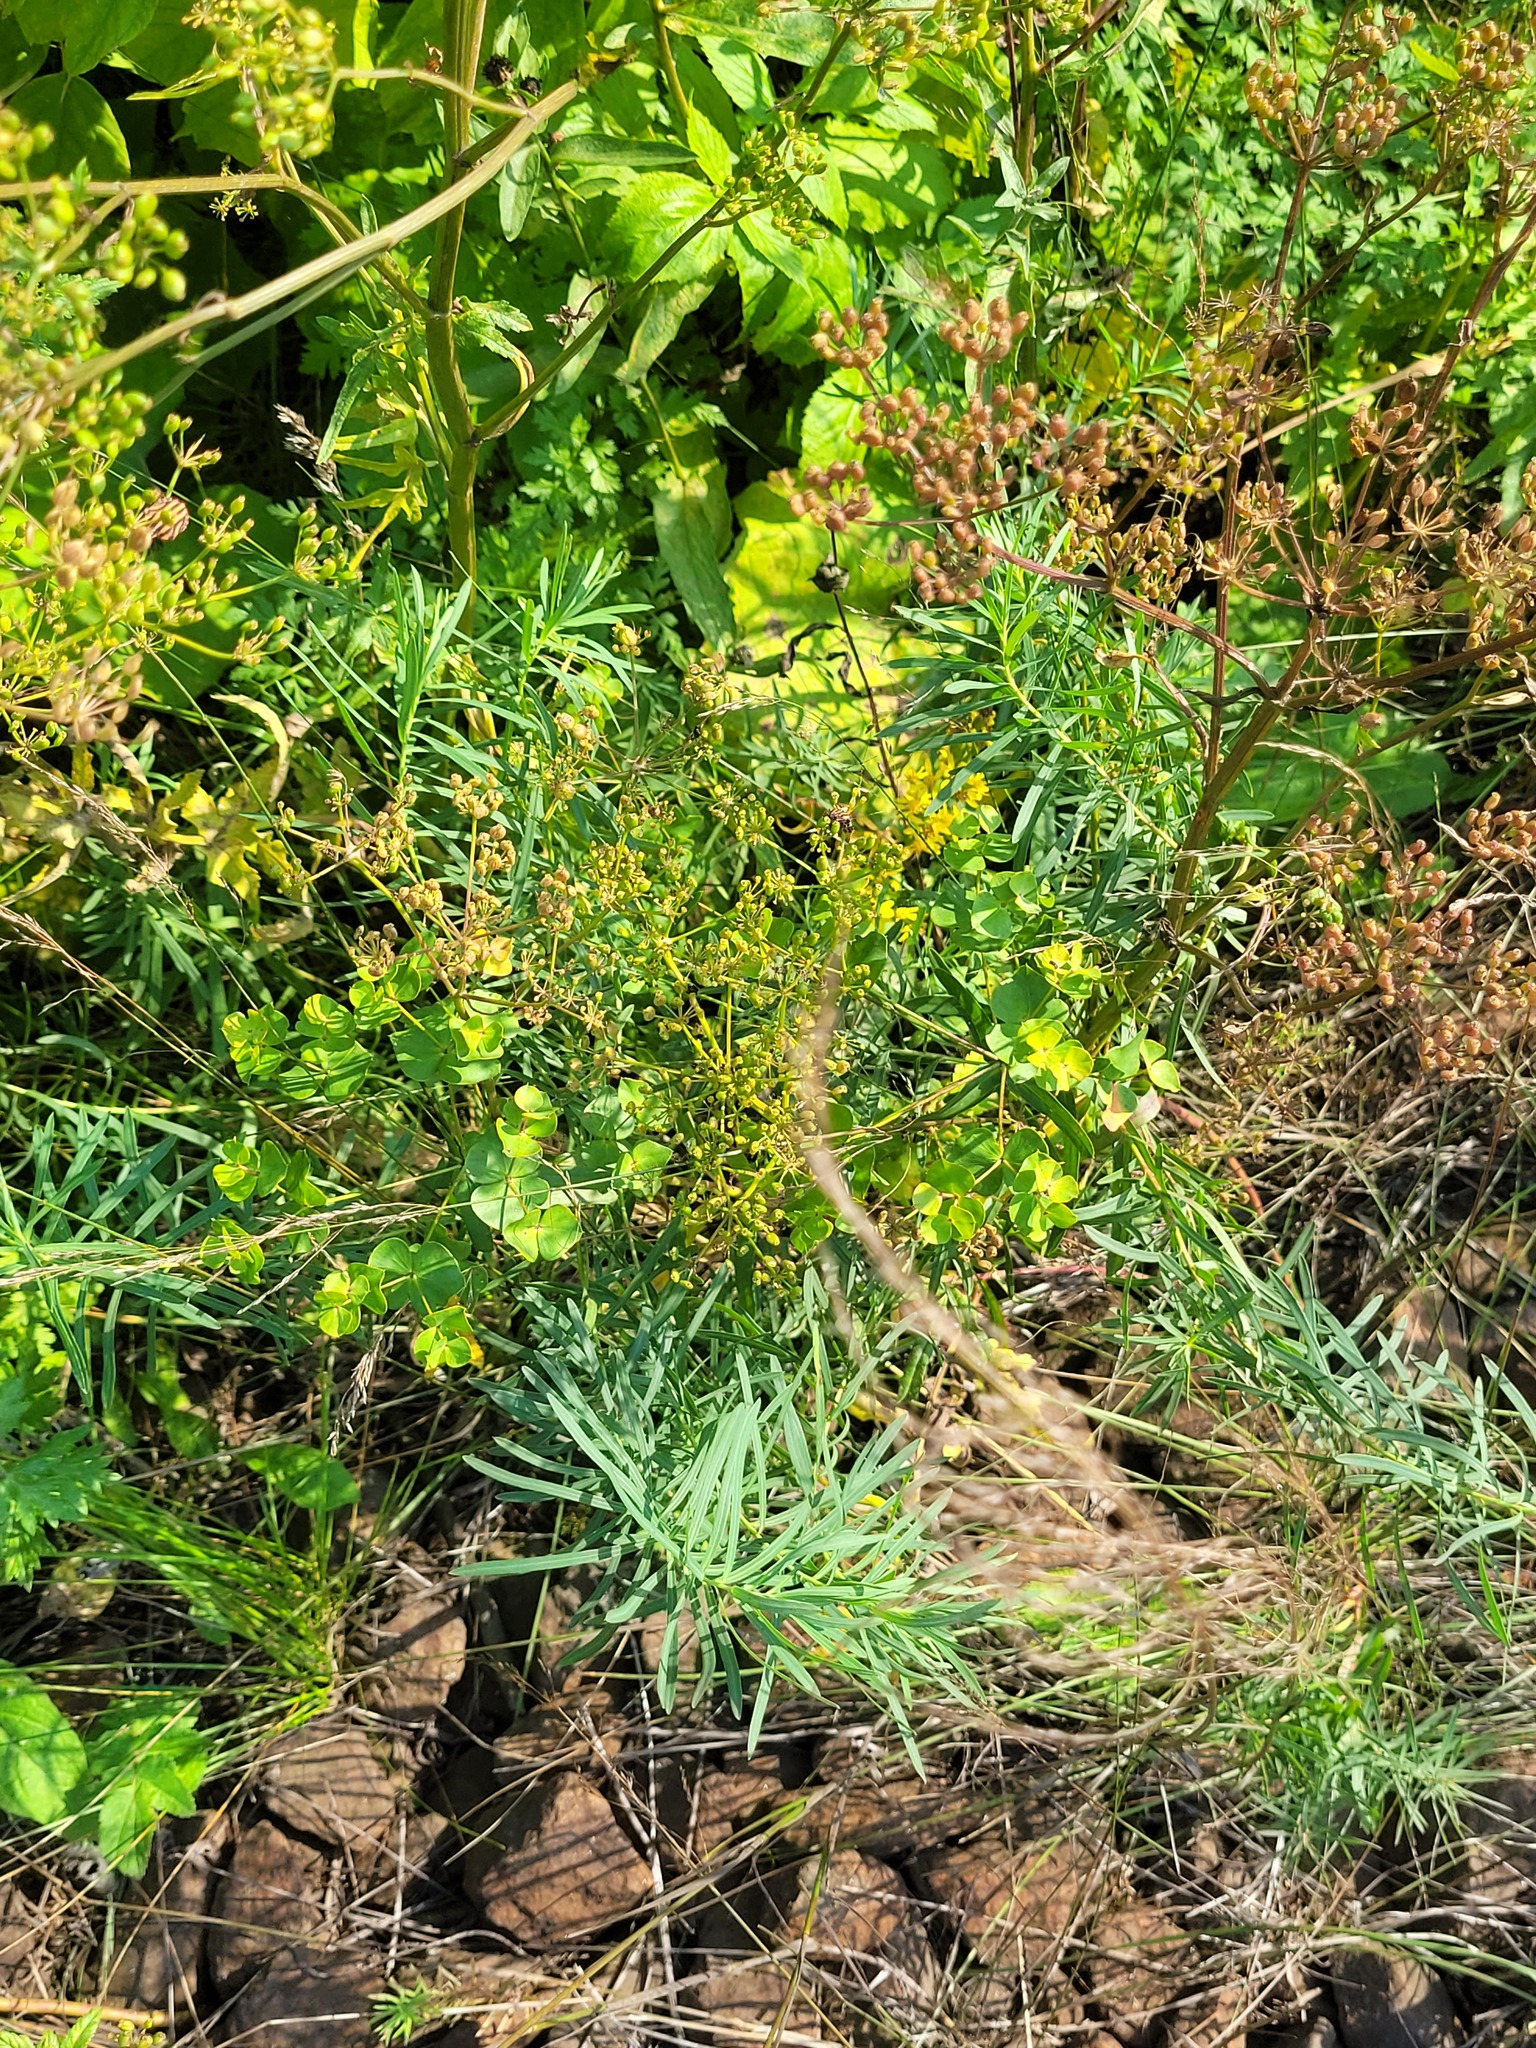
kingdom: Plantae
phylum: Tracheophyta
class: Magnoliopsida
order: Malpighiales
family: Euphorbiaceae
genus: Euphorbia
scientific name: Euphorbia virgata
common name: Leafy spurge
